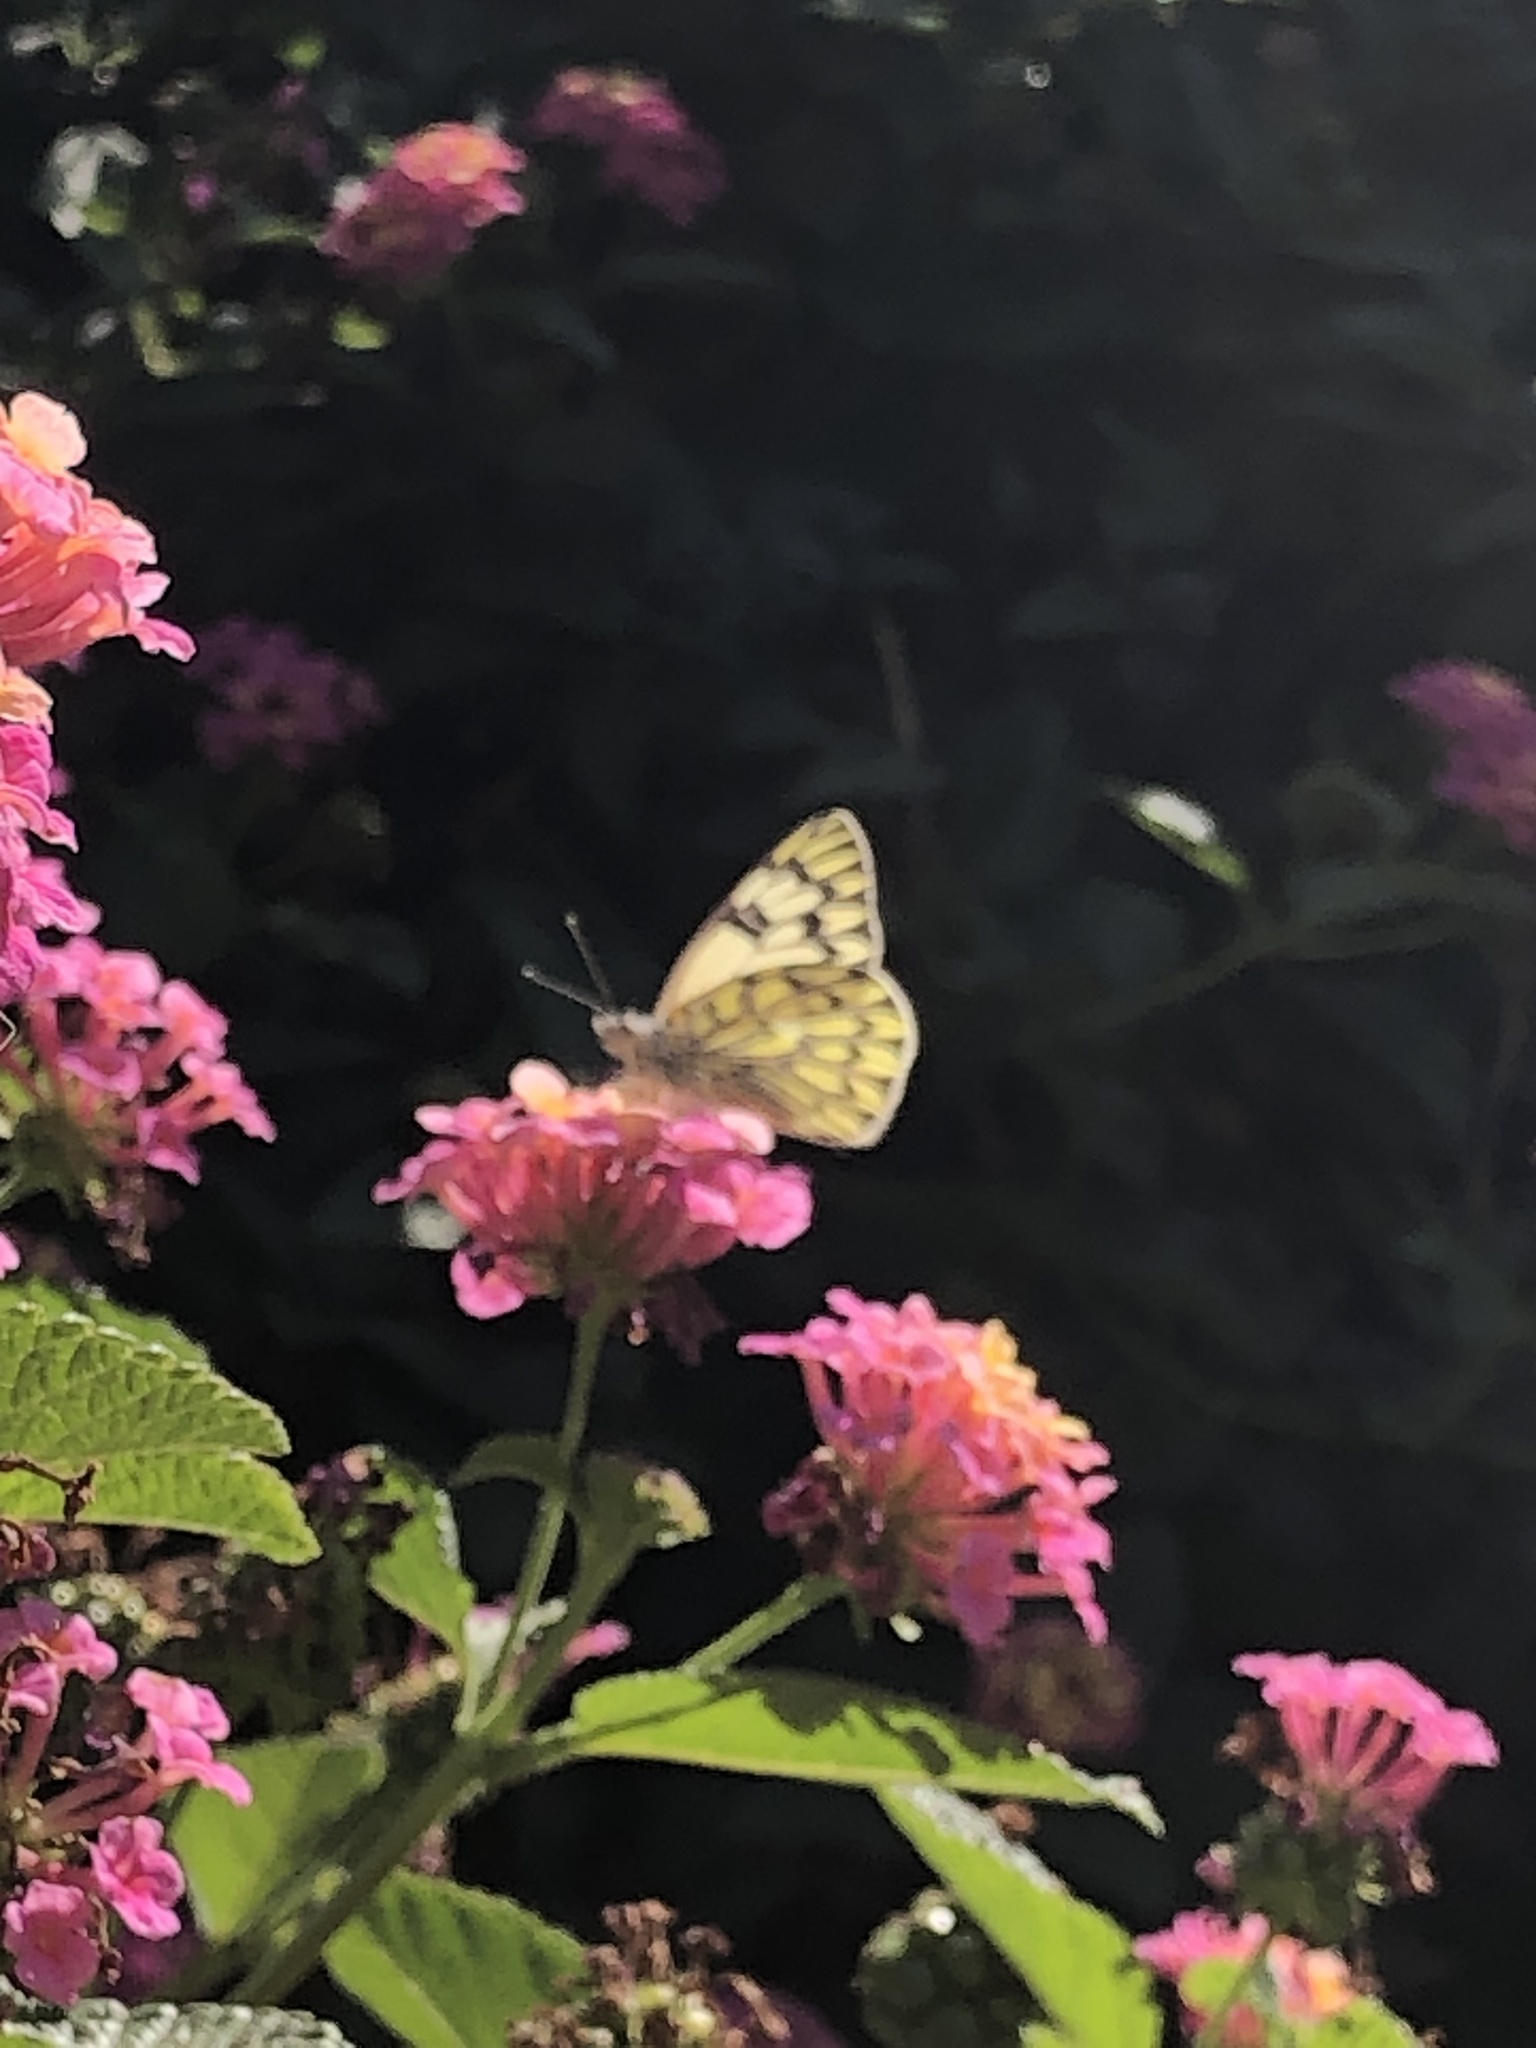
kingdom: Animalia
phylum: Arthropoda
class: Insecta
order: Lepidoptera
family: Pieridae
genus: Tatochila
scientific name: Tatochila autodice
